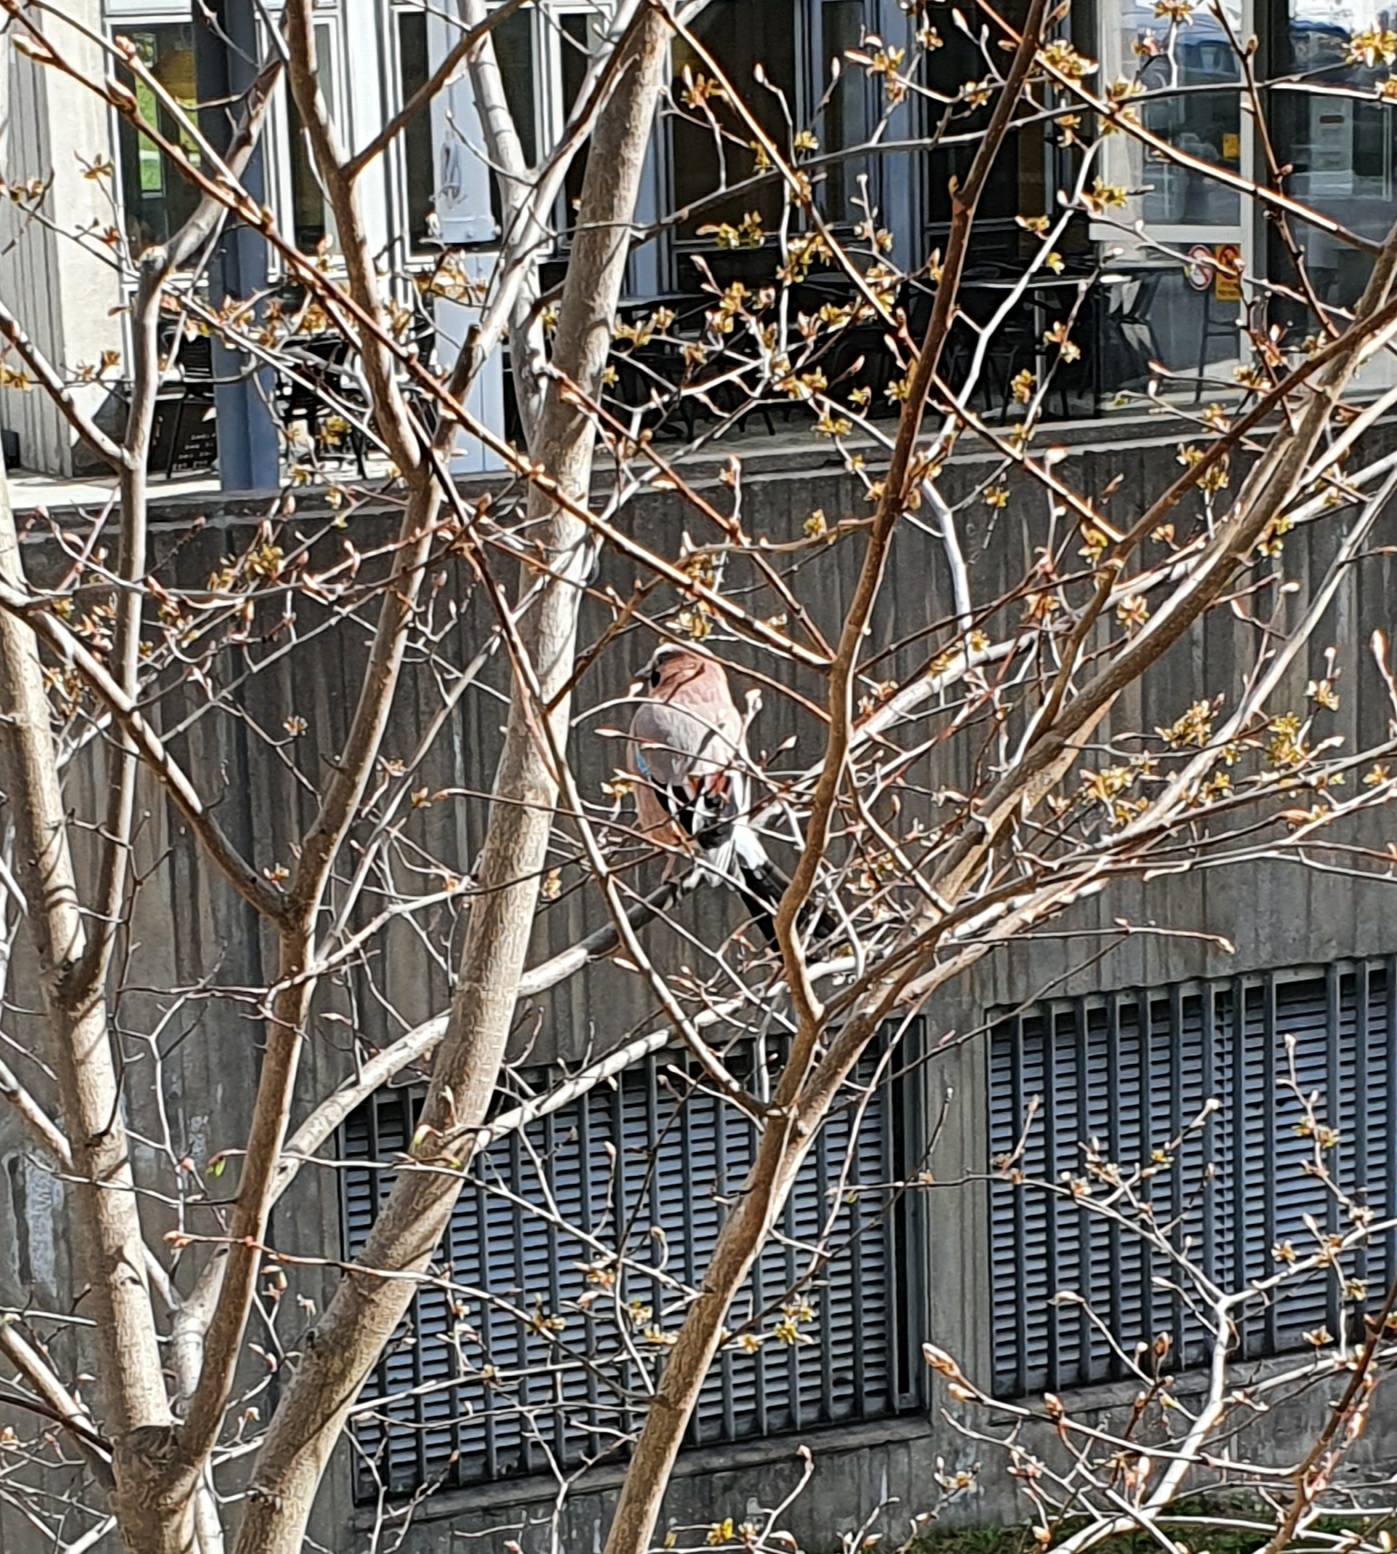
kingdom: Animalia
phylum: Chordata
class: Aves
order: Passeriformes
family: Corvidae
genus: Garrulus
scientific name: Garrulus glandarius
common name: Eurasian jay
